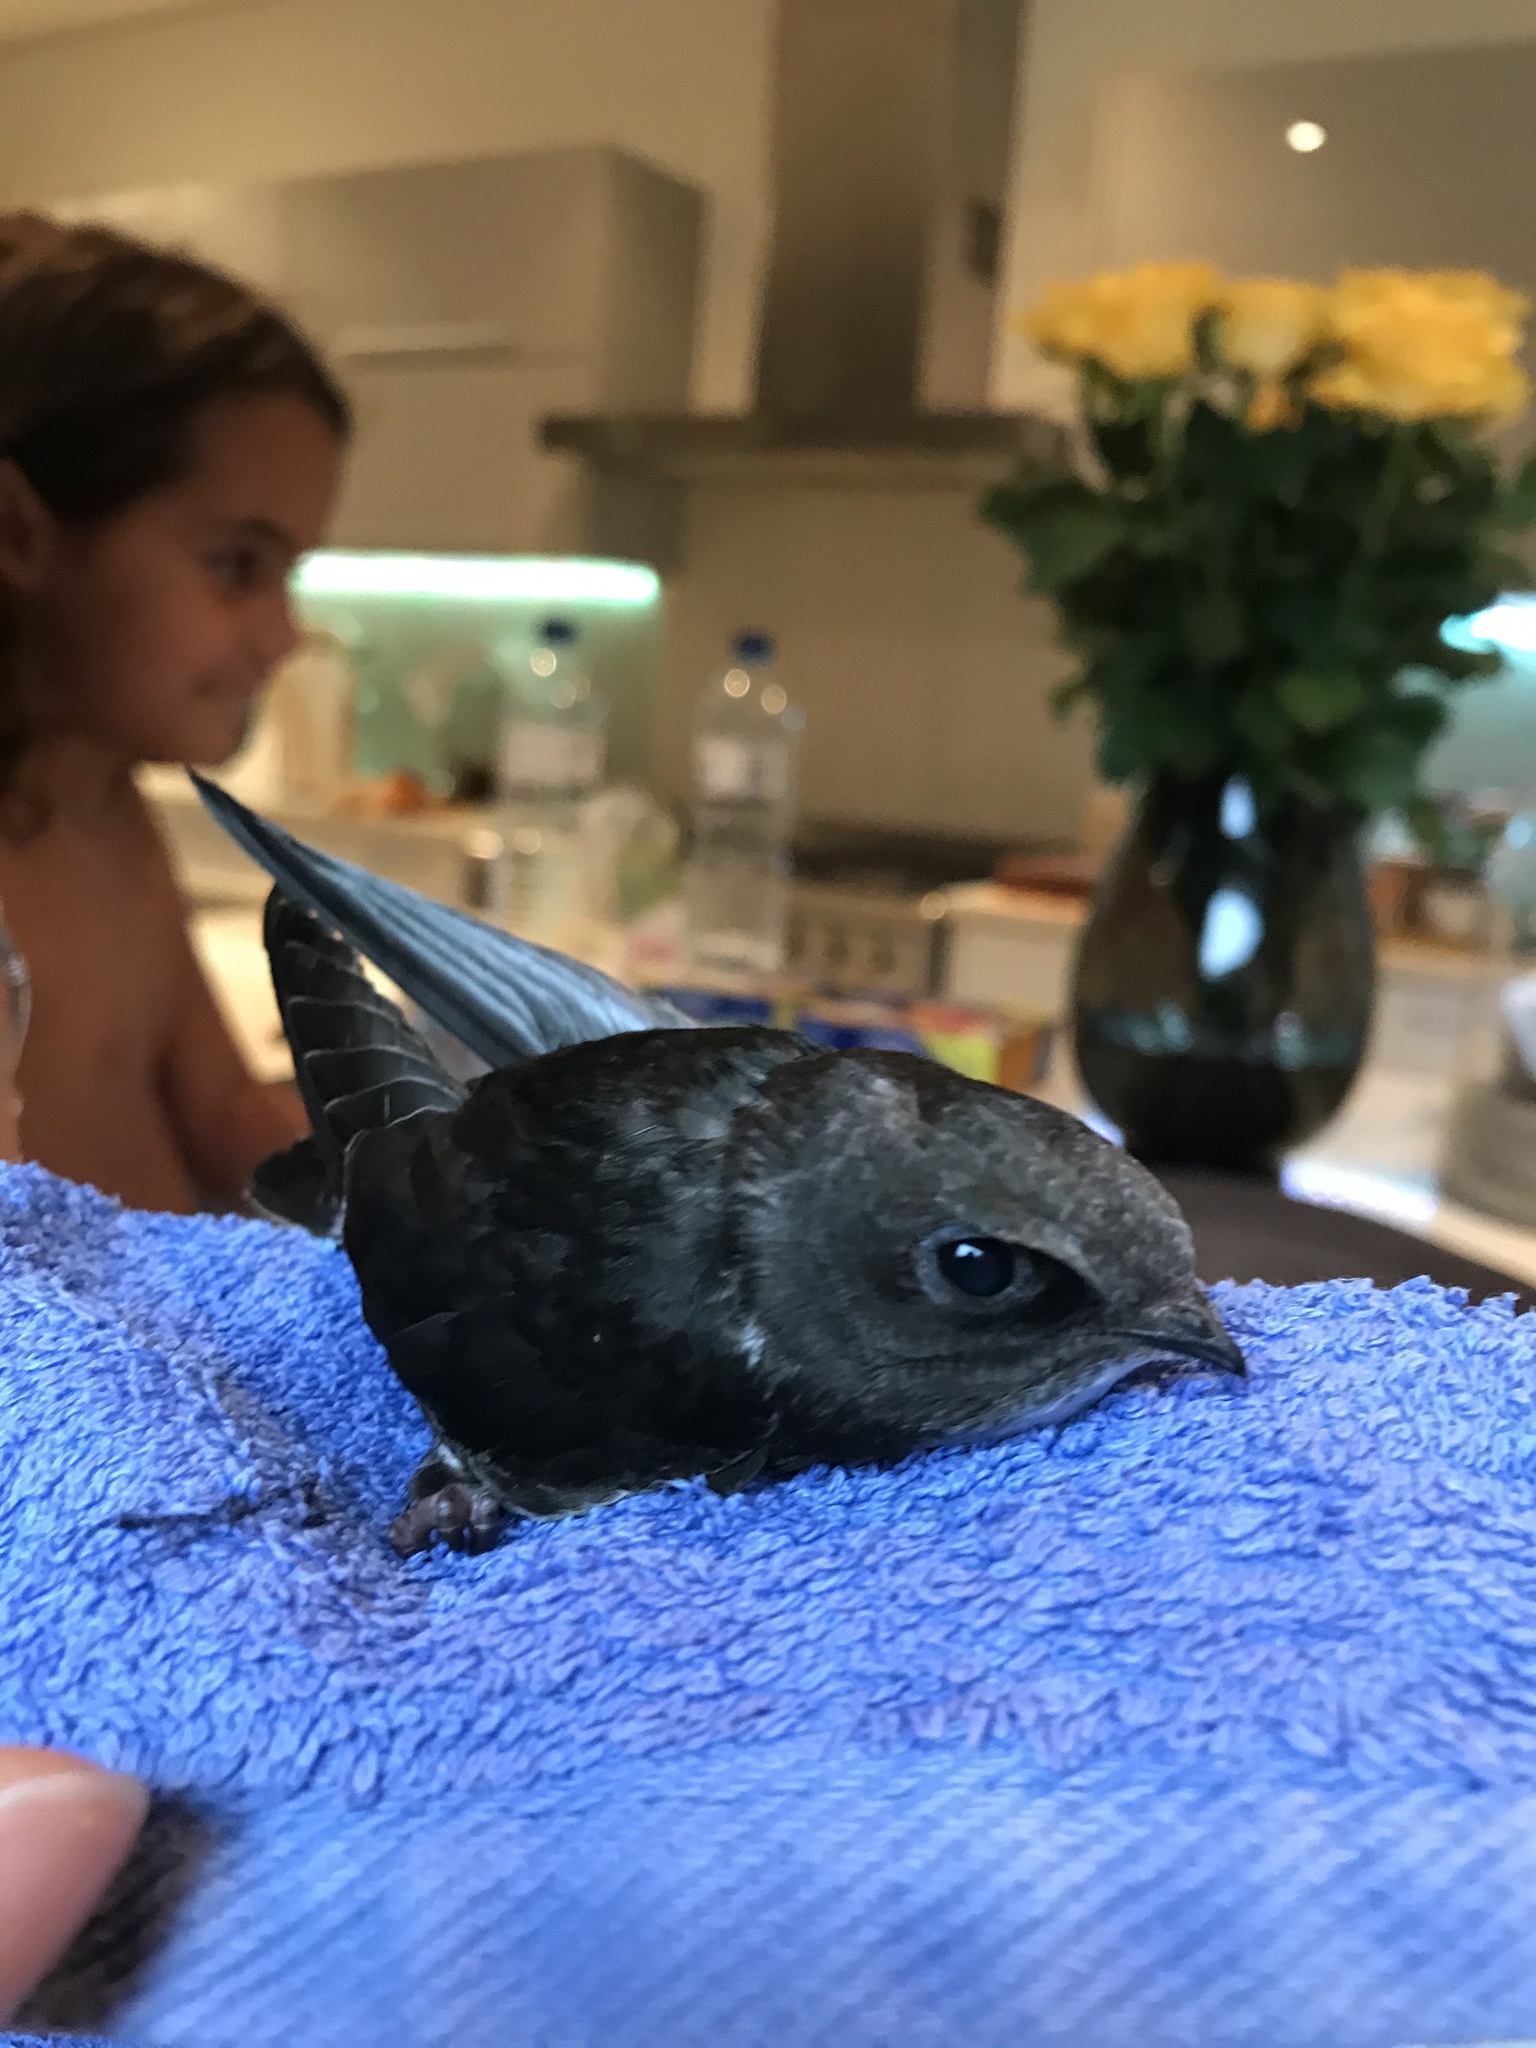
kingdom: Animalia
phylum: Chordata
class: Aves
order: Apodiformes
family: Apodidae
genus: Apus
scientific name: Apus affinis
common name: Little swift
